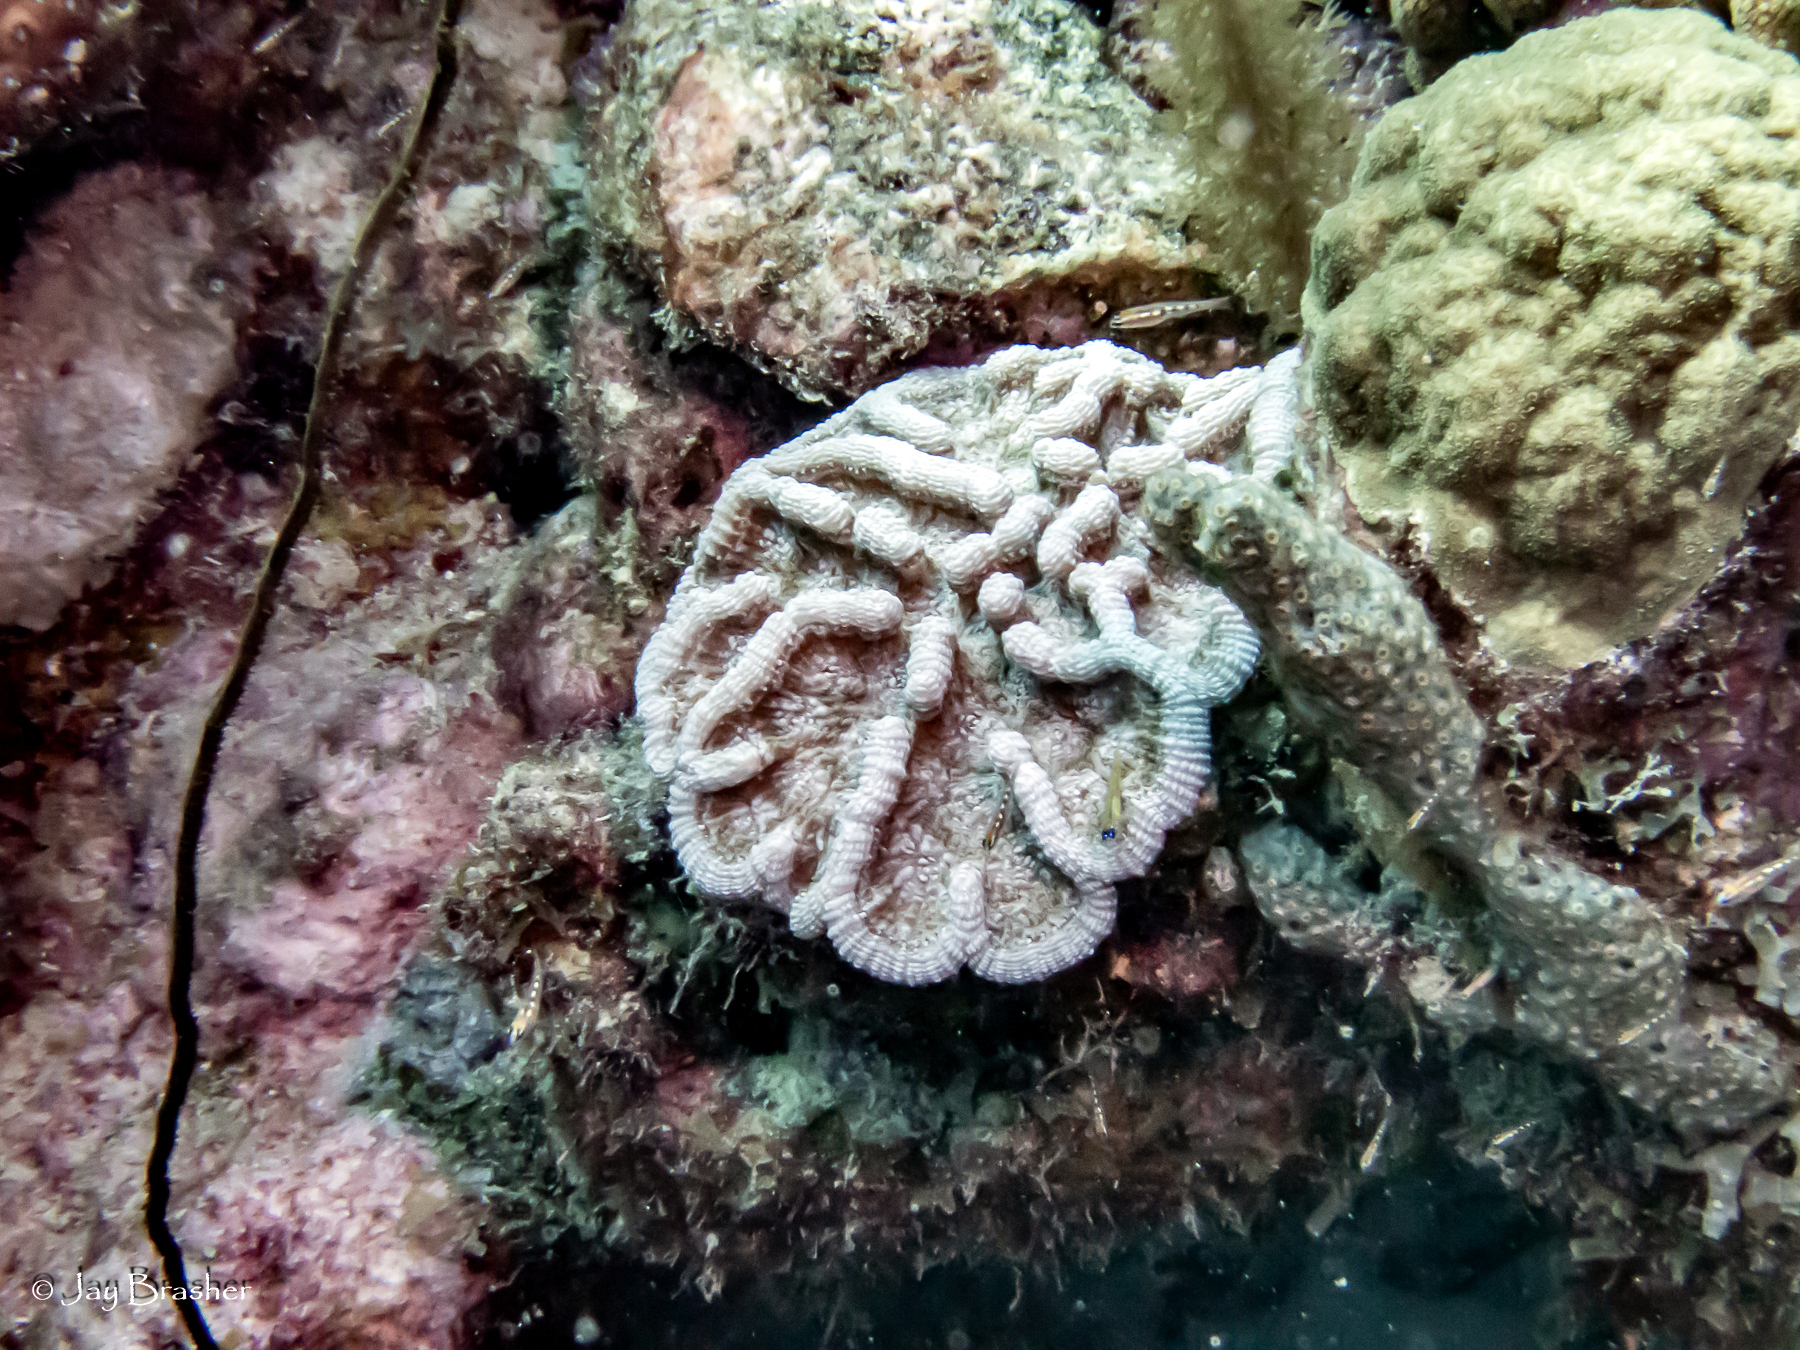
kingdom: Animalia
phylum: Cnidaria
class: Anthozoa
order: Scleractinia
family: Poritidae
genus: Porites
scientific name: Porites astreoides
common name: Mustard hill coral
